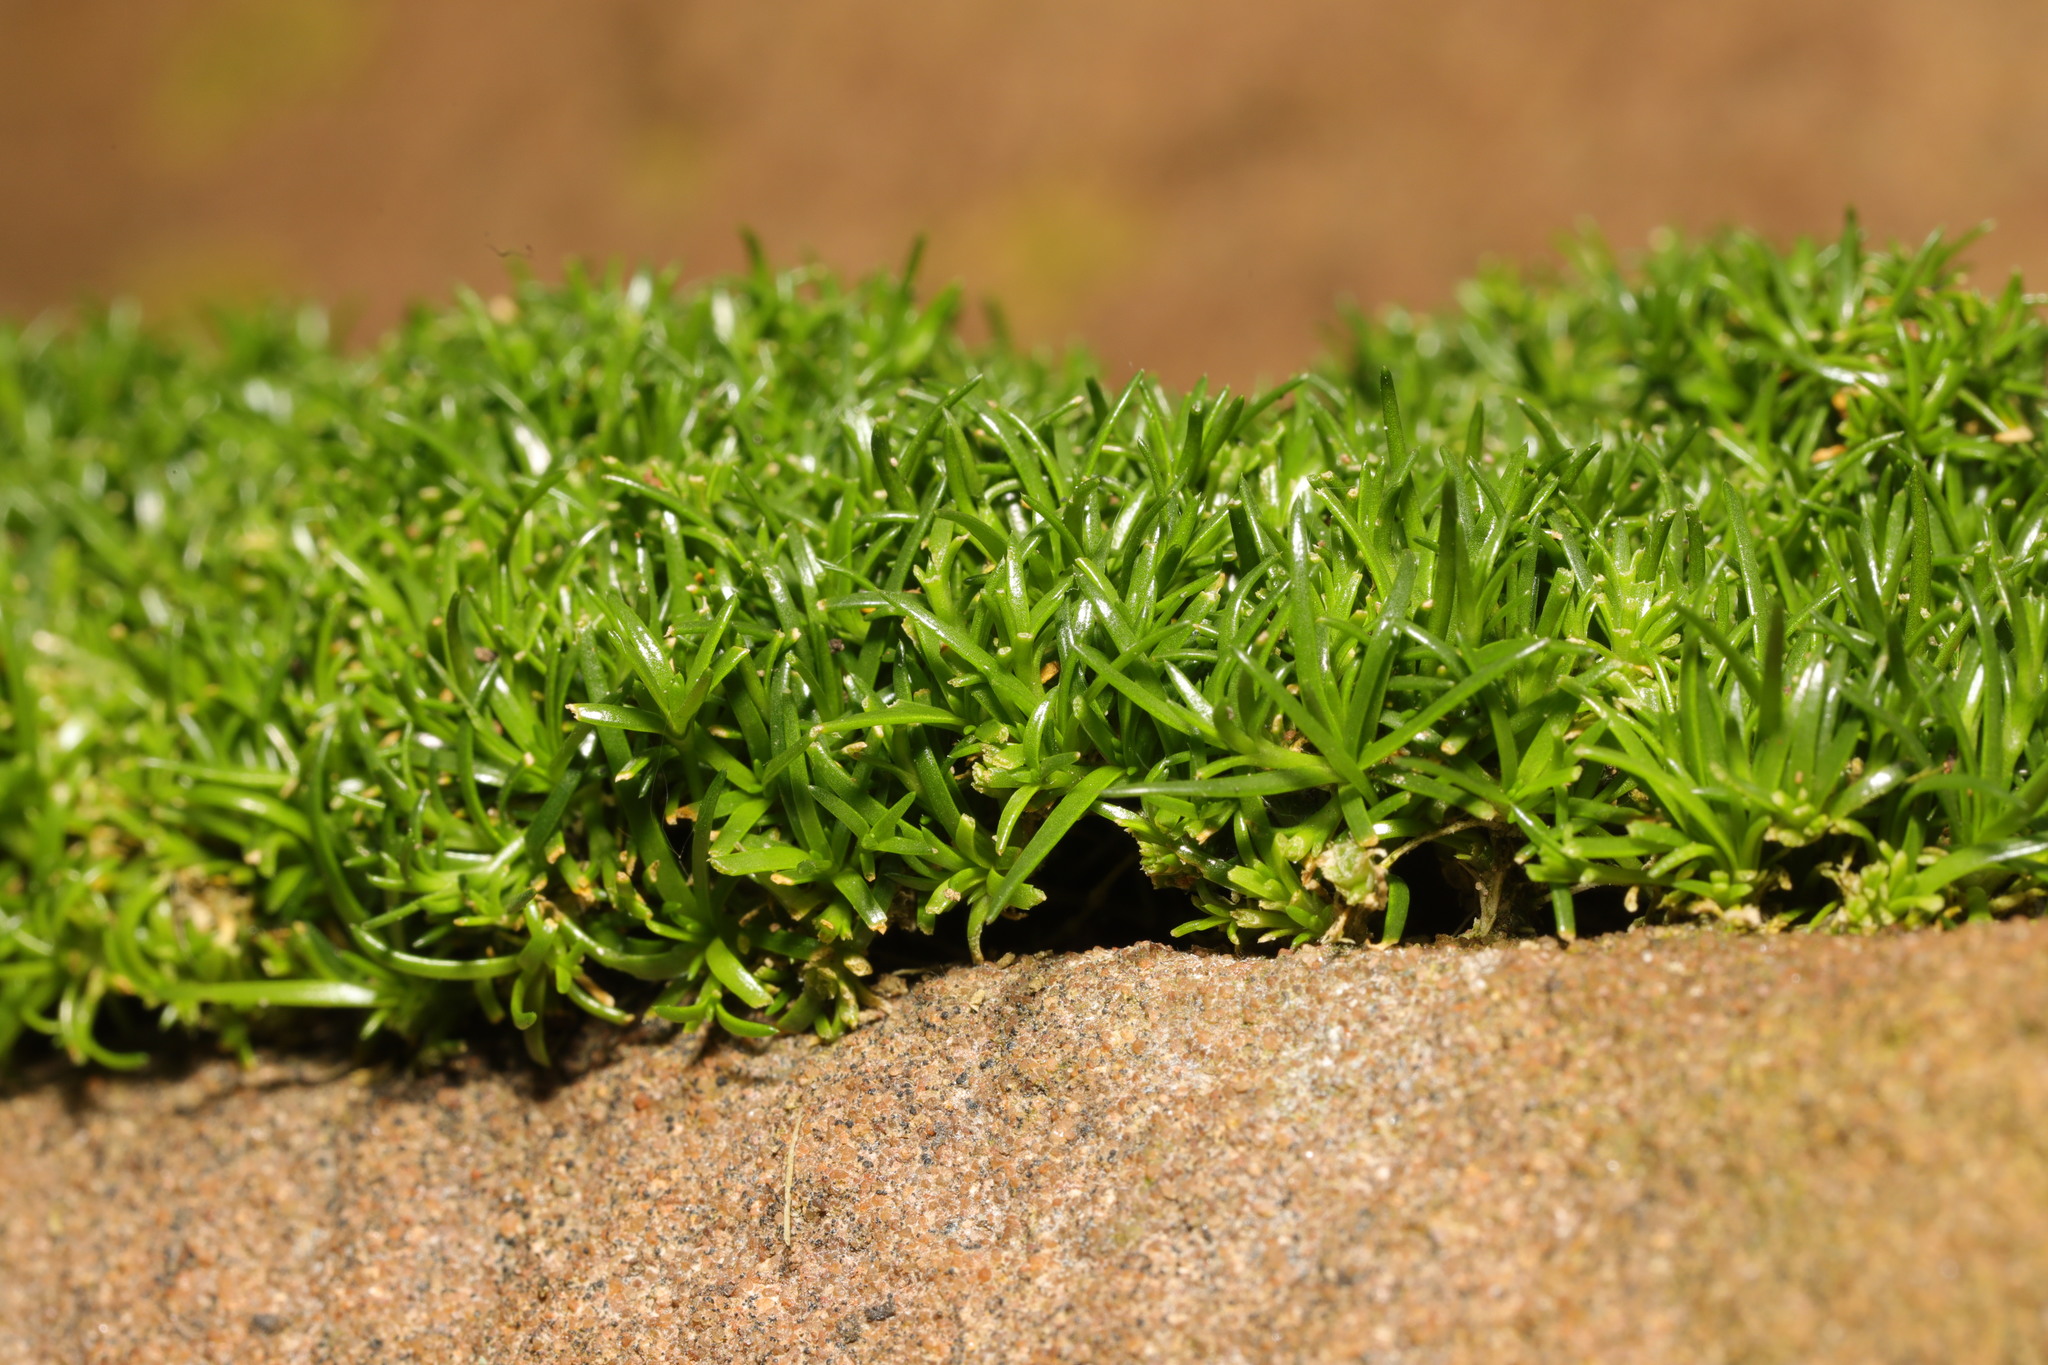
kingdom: Plantae
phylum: Tracheophyta
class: Magnoliopsida
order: Caryophyllales
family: Caryophyllaceae
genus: Sagina
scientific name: Sagina procumbens
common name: Procumbent pearlwort
